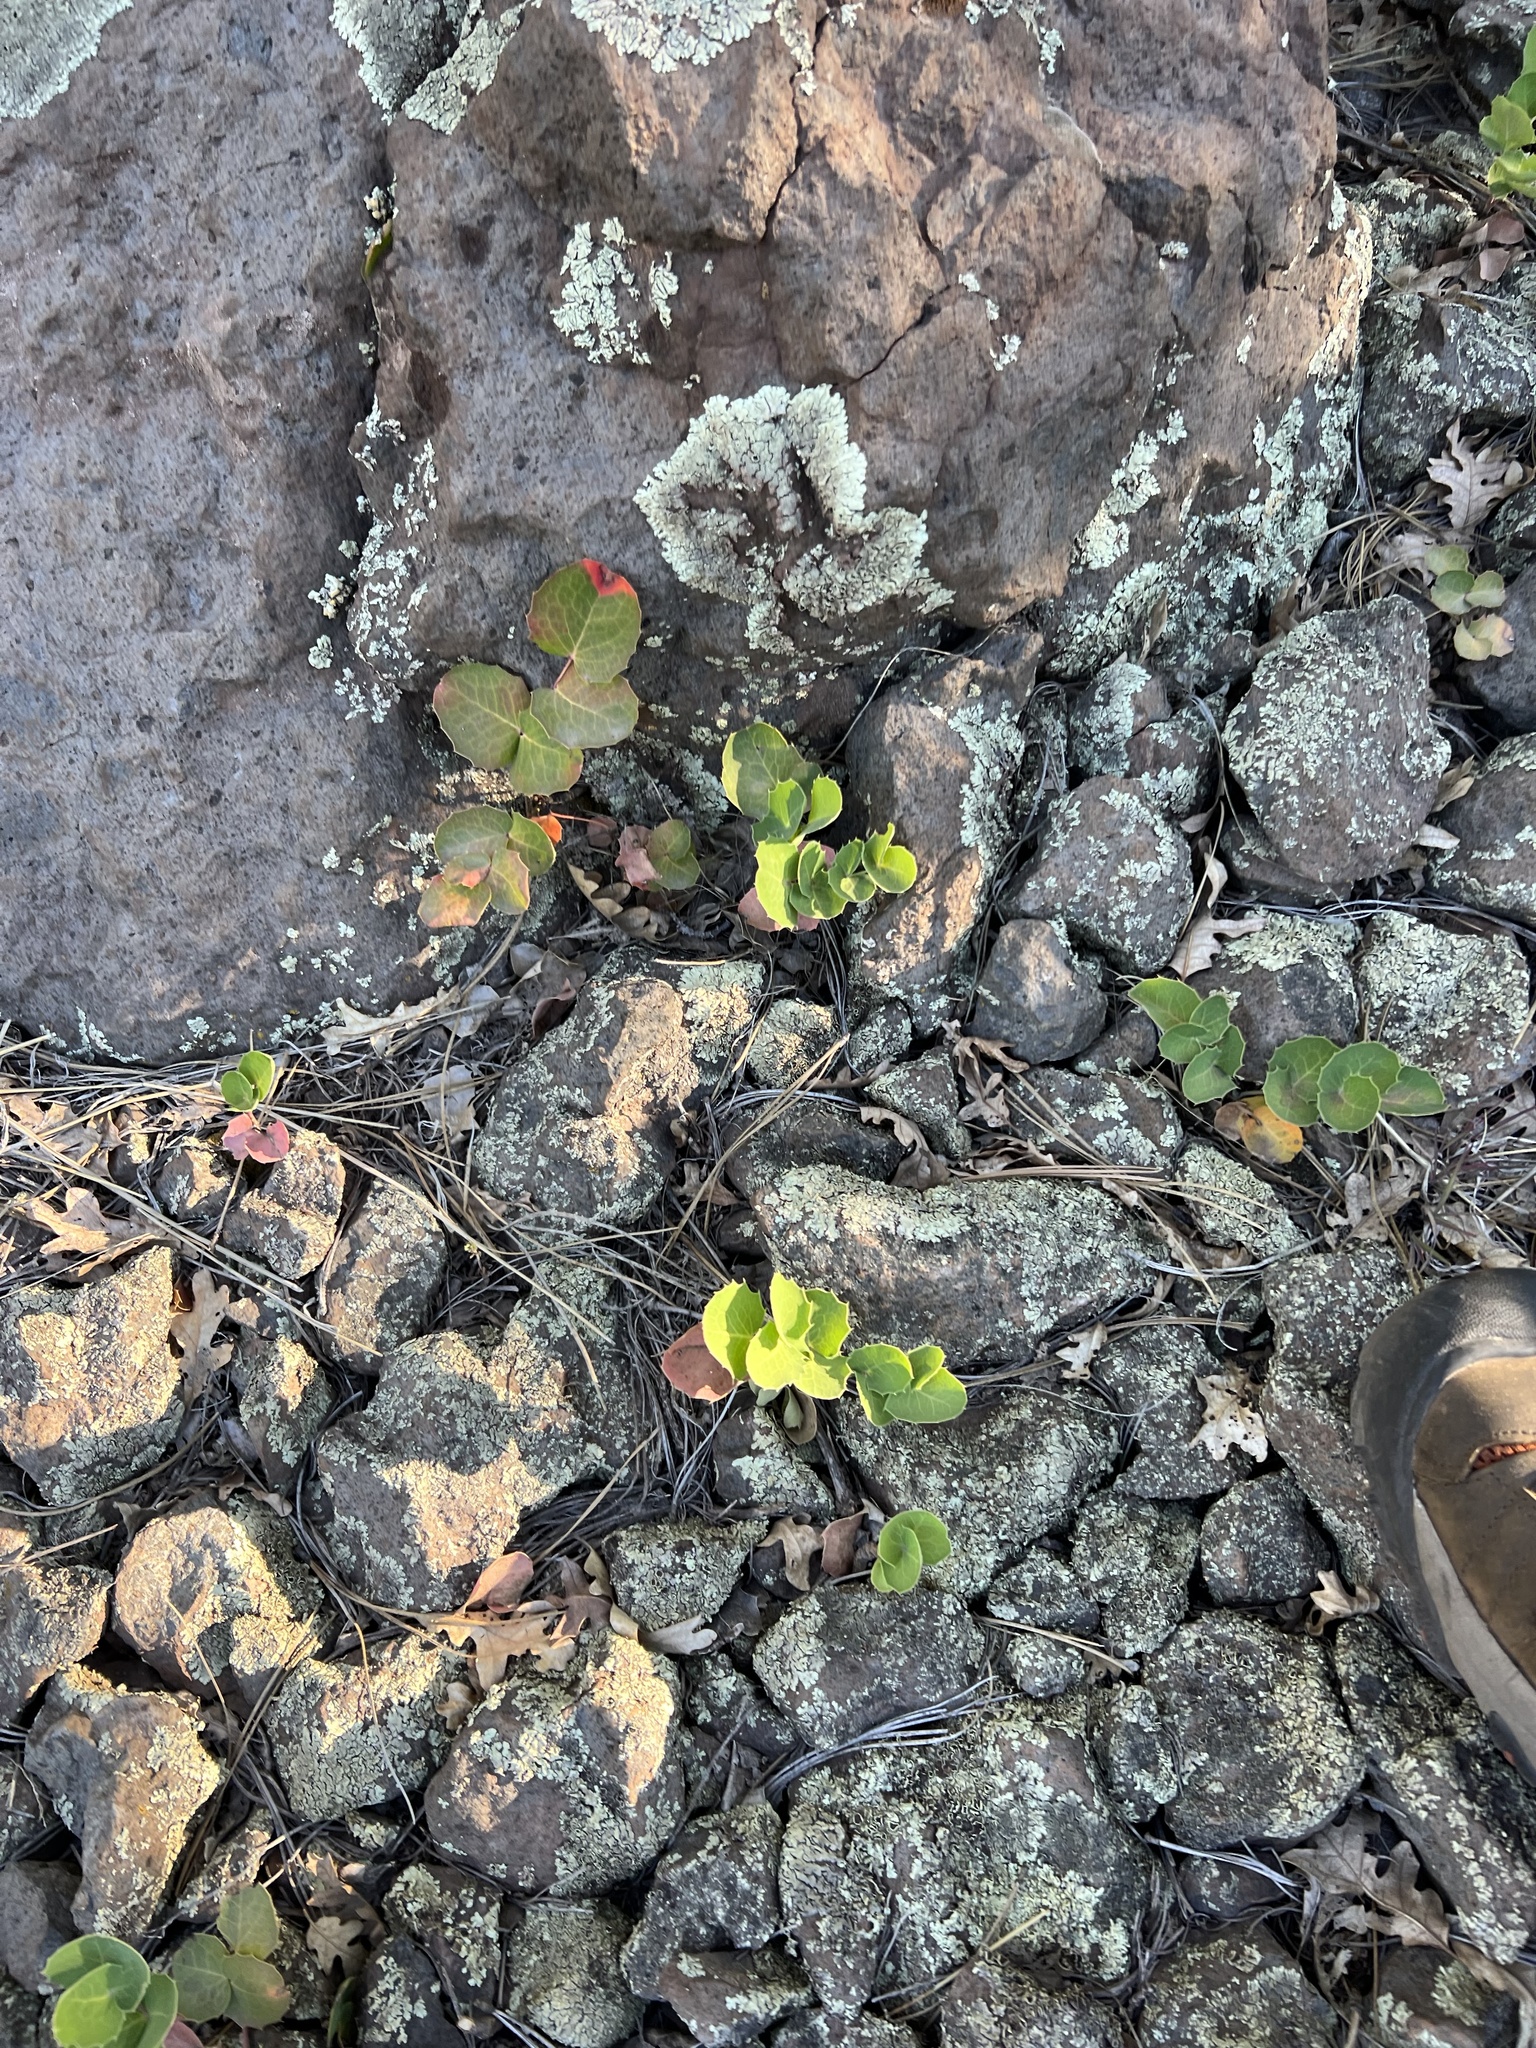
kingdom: Plantae
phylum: Tracheophyta
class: Magnoliopsida
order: Ranunculales
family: Berberidaceae
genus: Mahonia
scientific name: Mahonia repens
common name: Creeping oregon-grape
